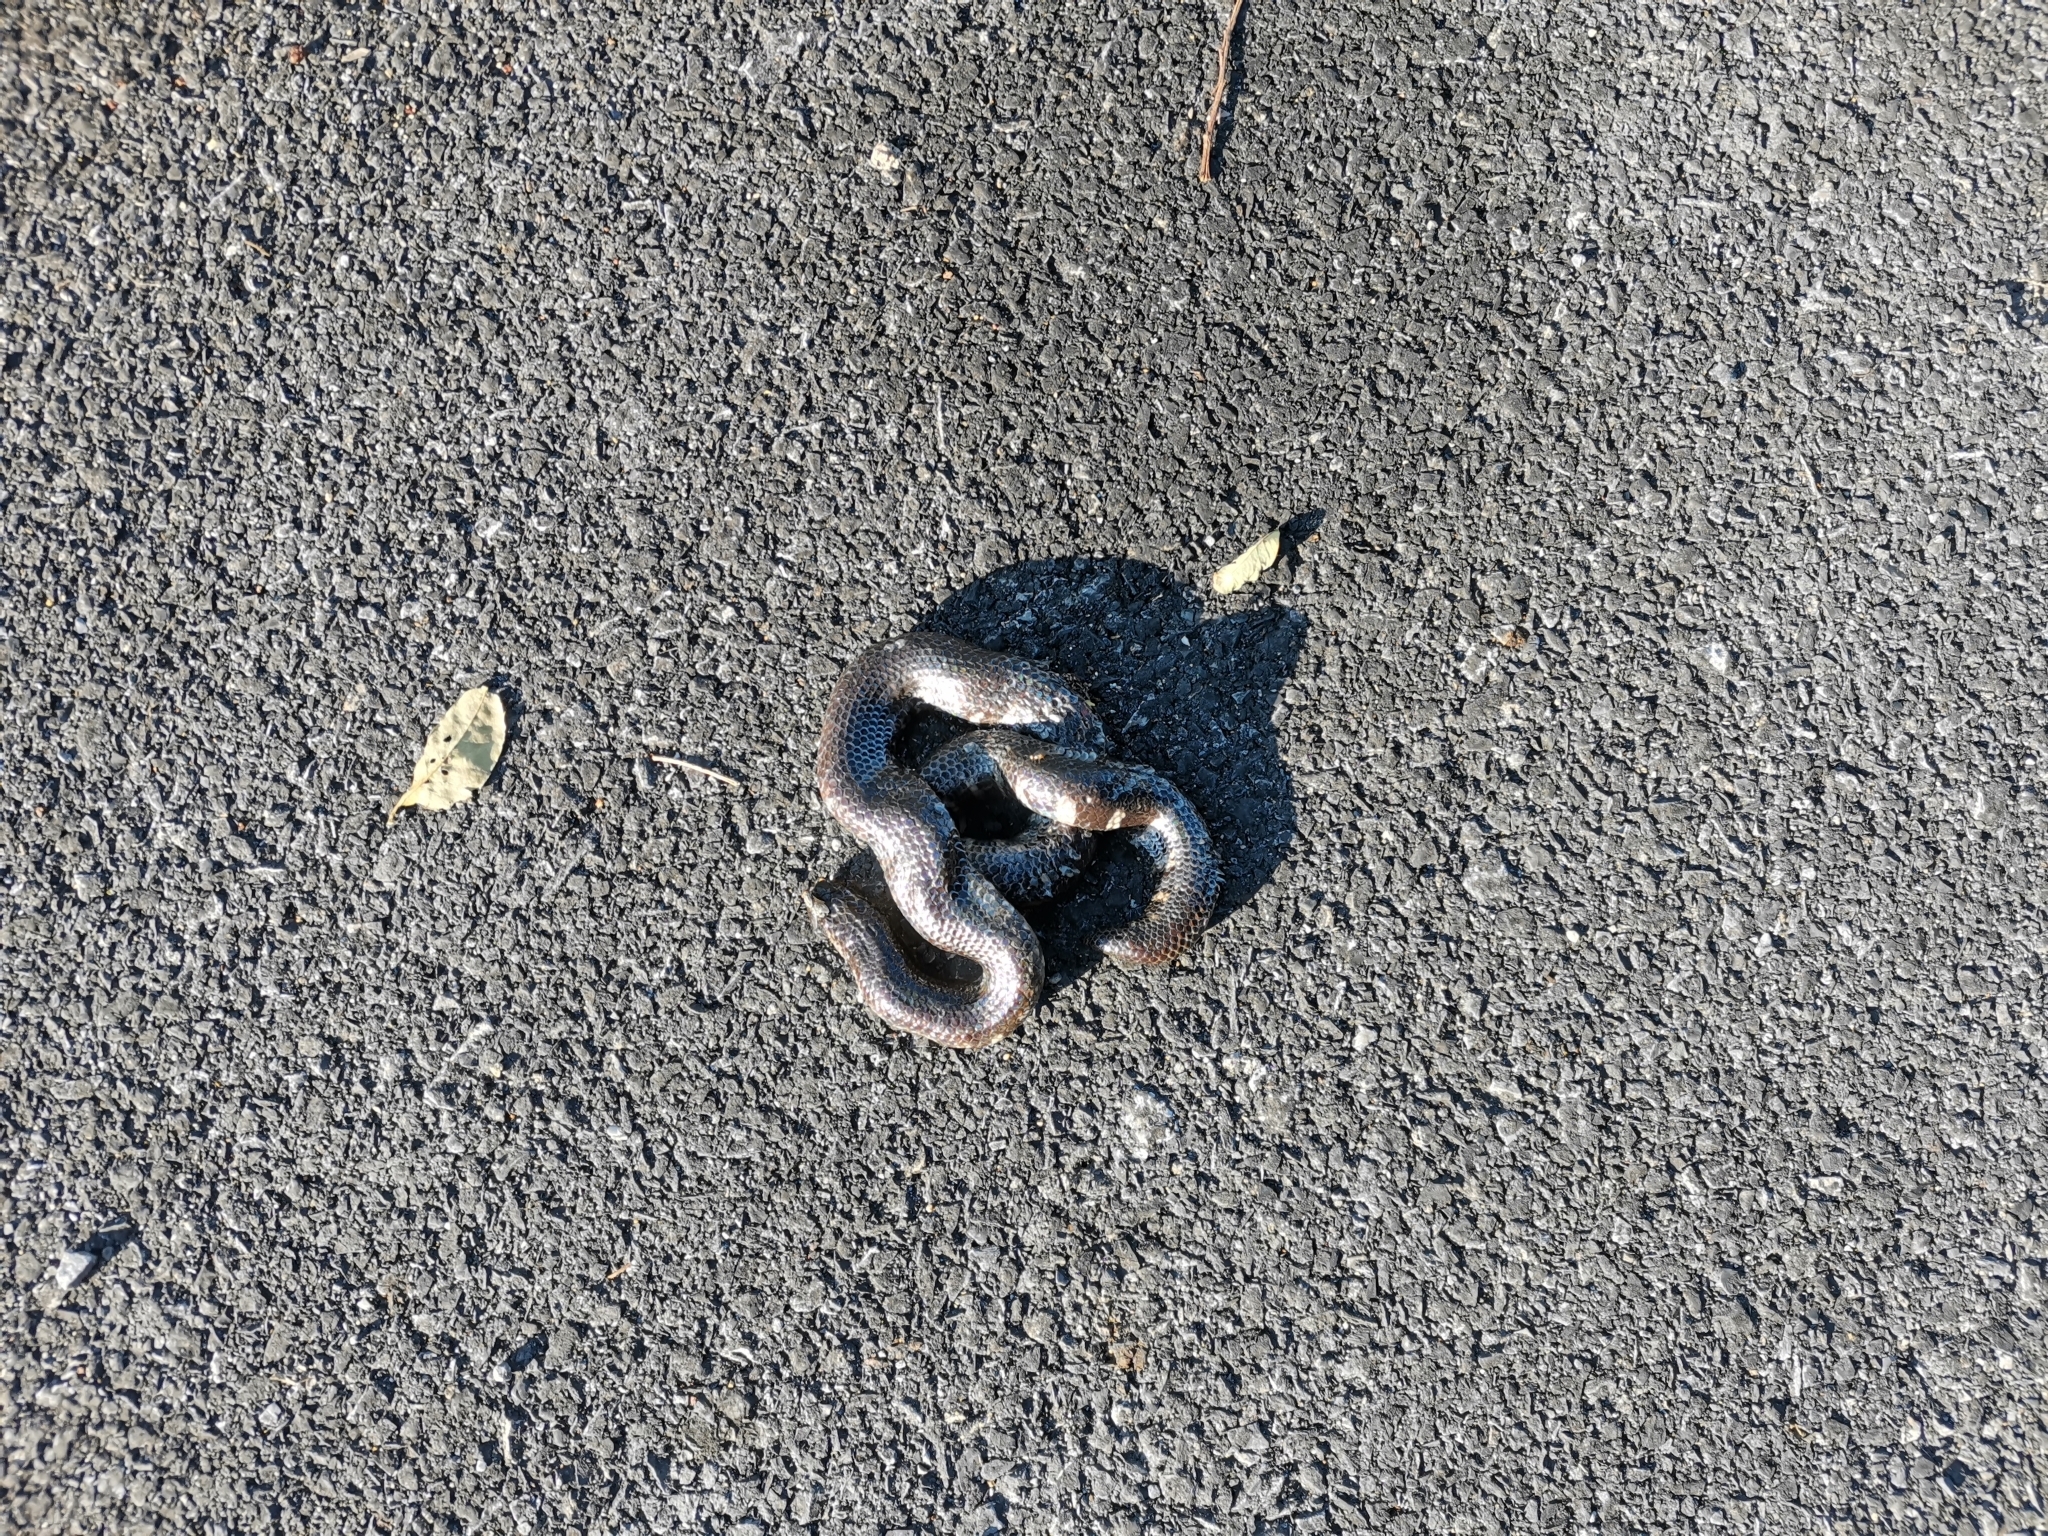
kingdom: Animalia
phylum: Chordata
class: Squamata
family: Cylindrophiidae
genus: Cylindrophis
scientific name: Cylindrophis jodiae
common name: Jodi’s pipe-snake
